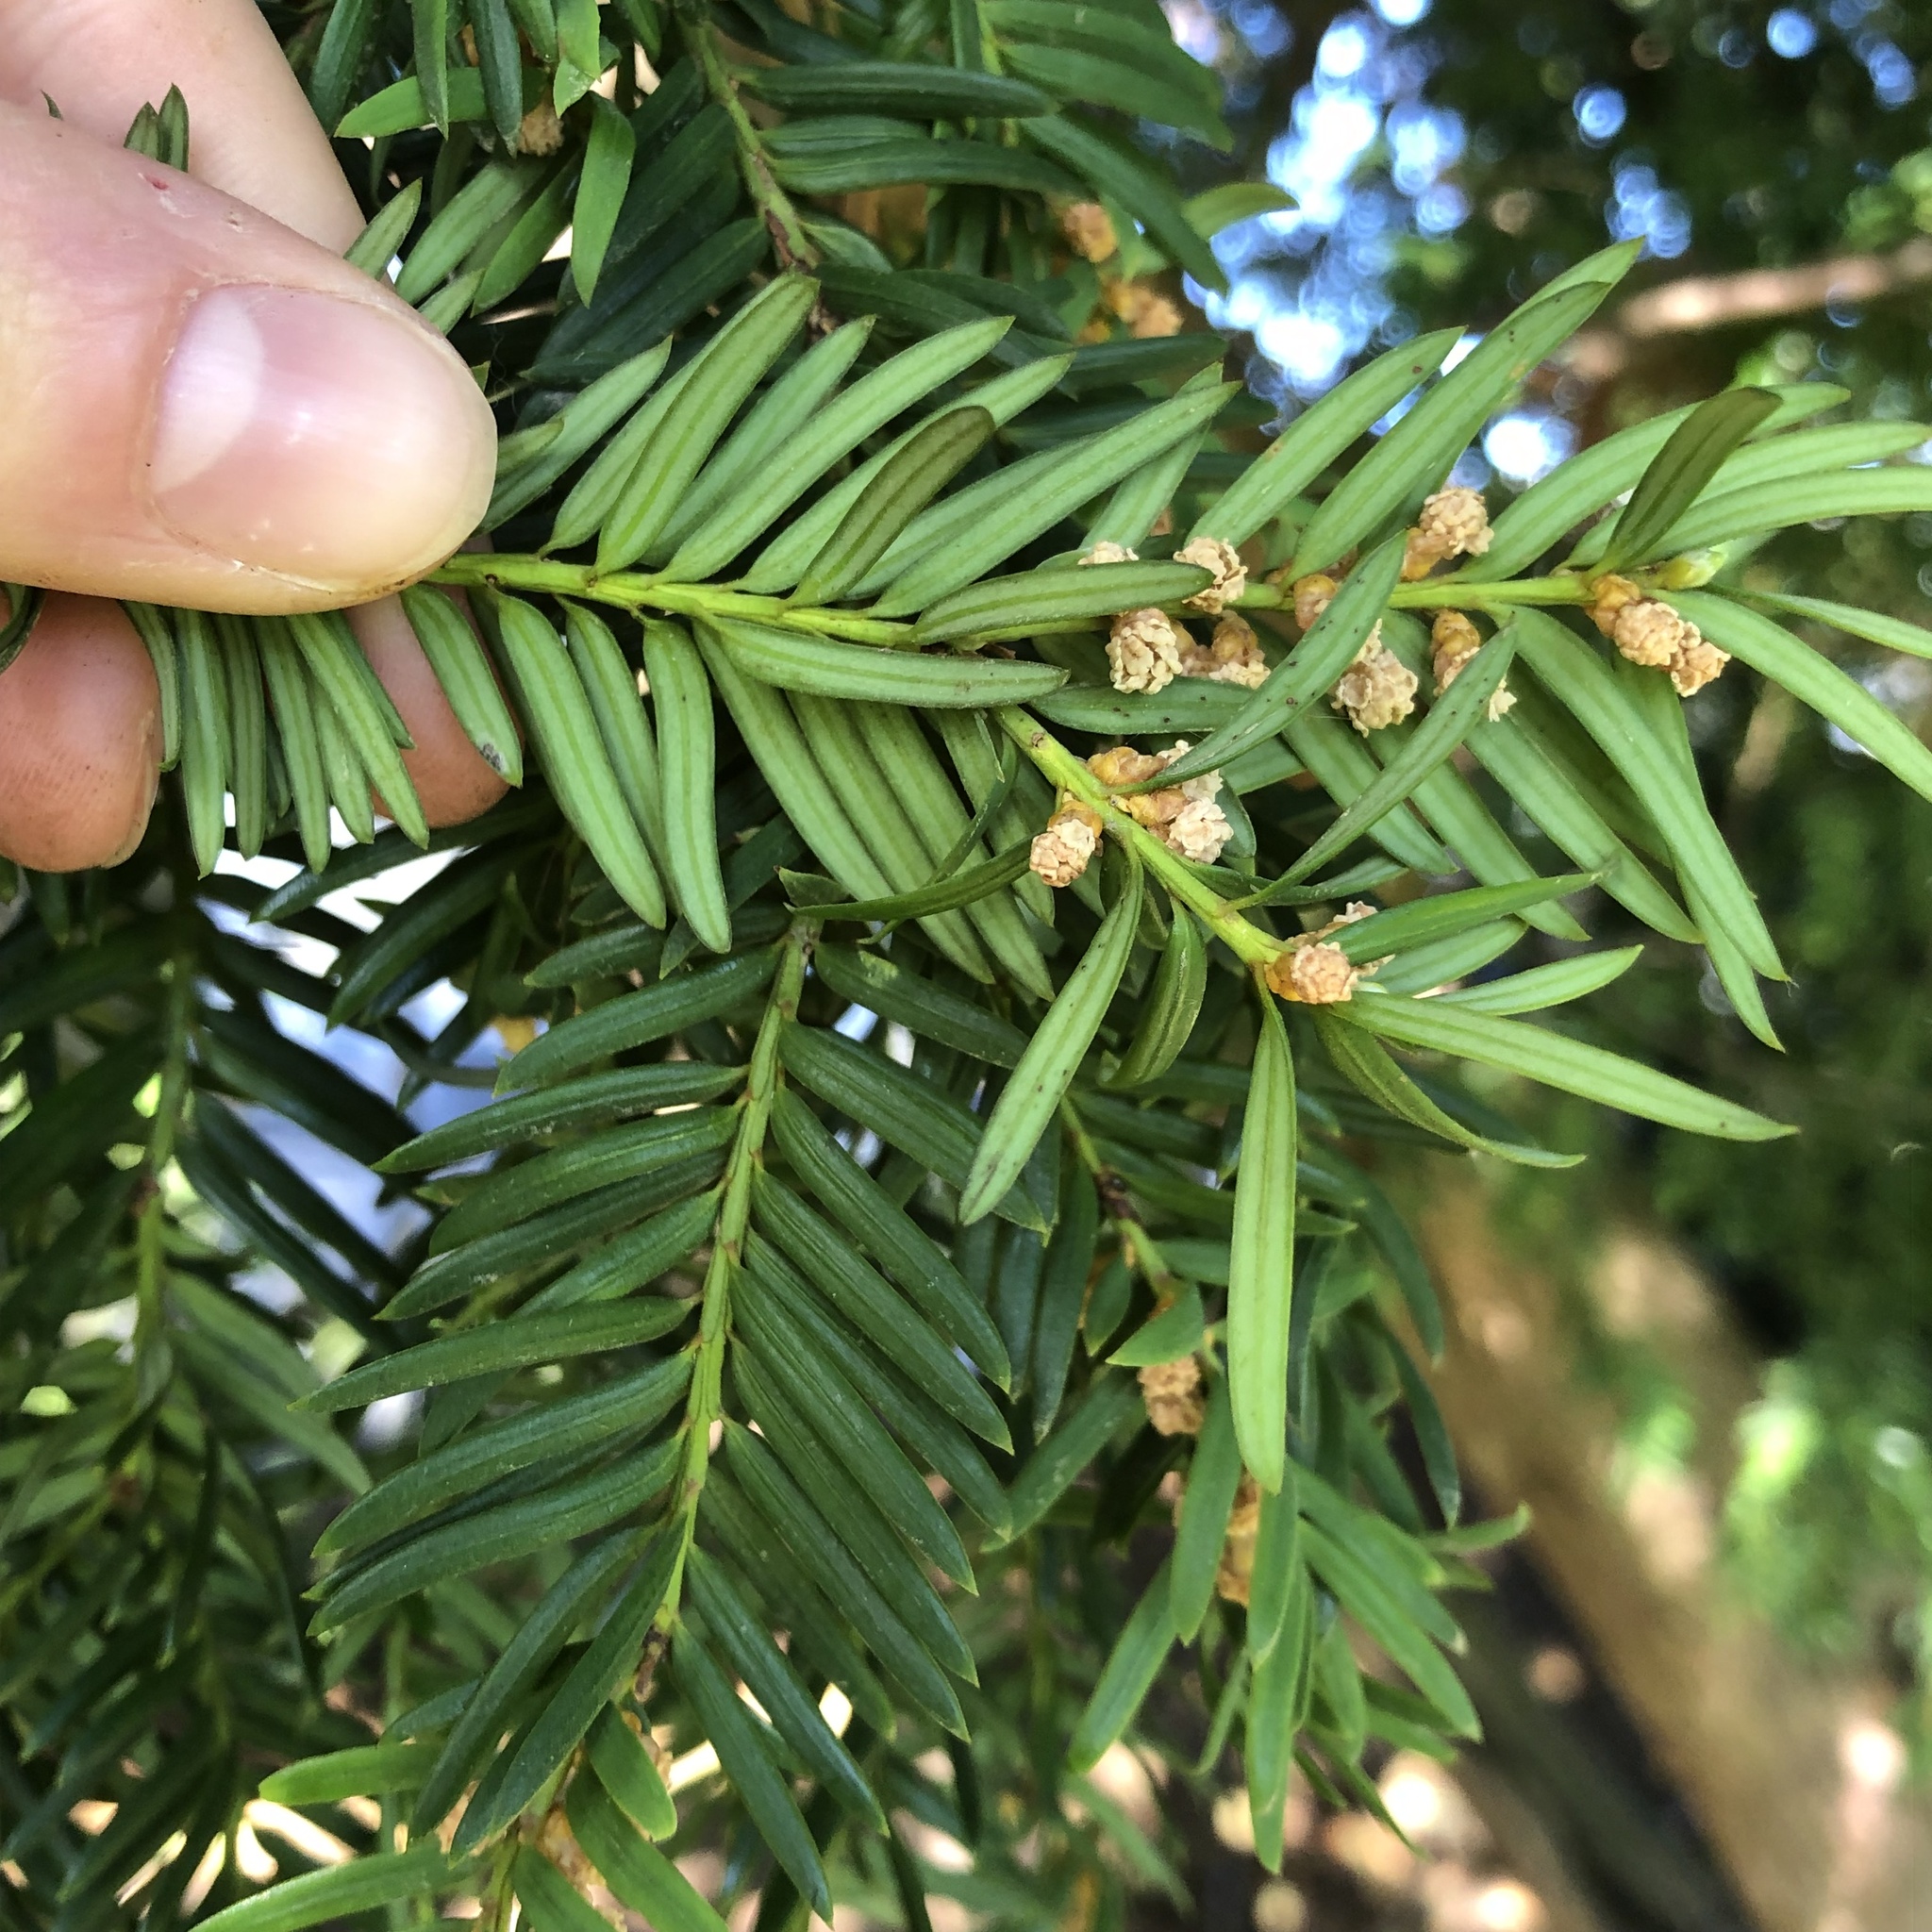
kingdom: Plantae
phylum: Tracheophyta
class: Pinopsida
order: Pinales
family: Taxaceae
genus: Taxus
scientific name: Taxus brevifolia
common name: Pacific yew
